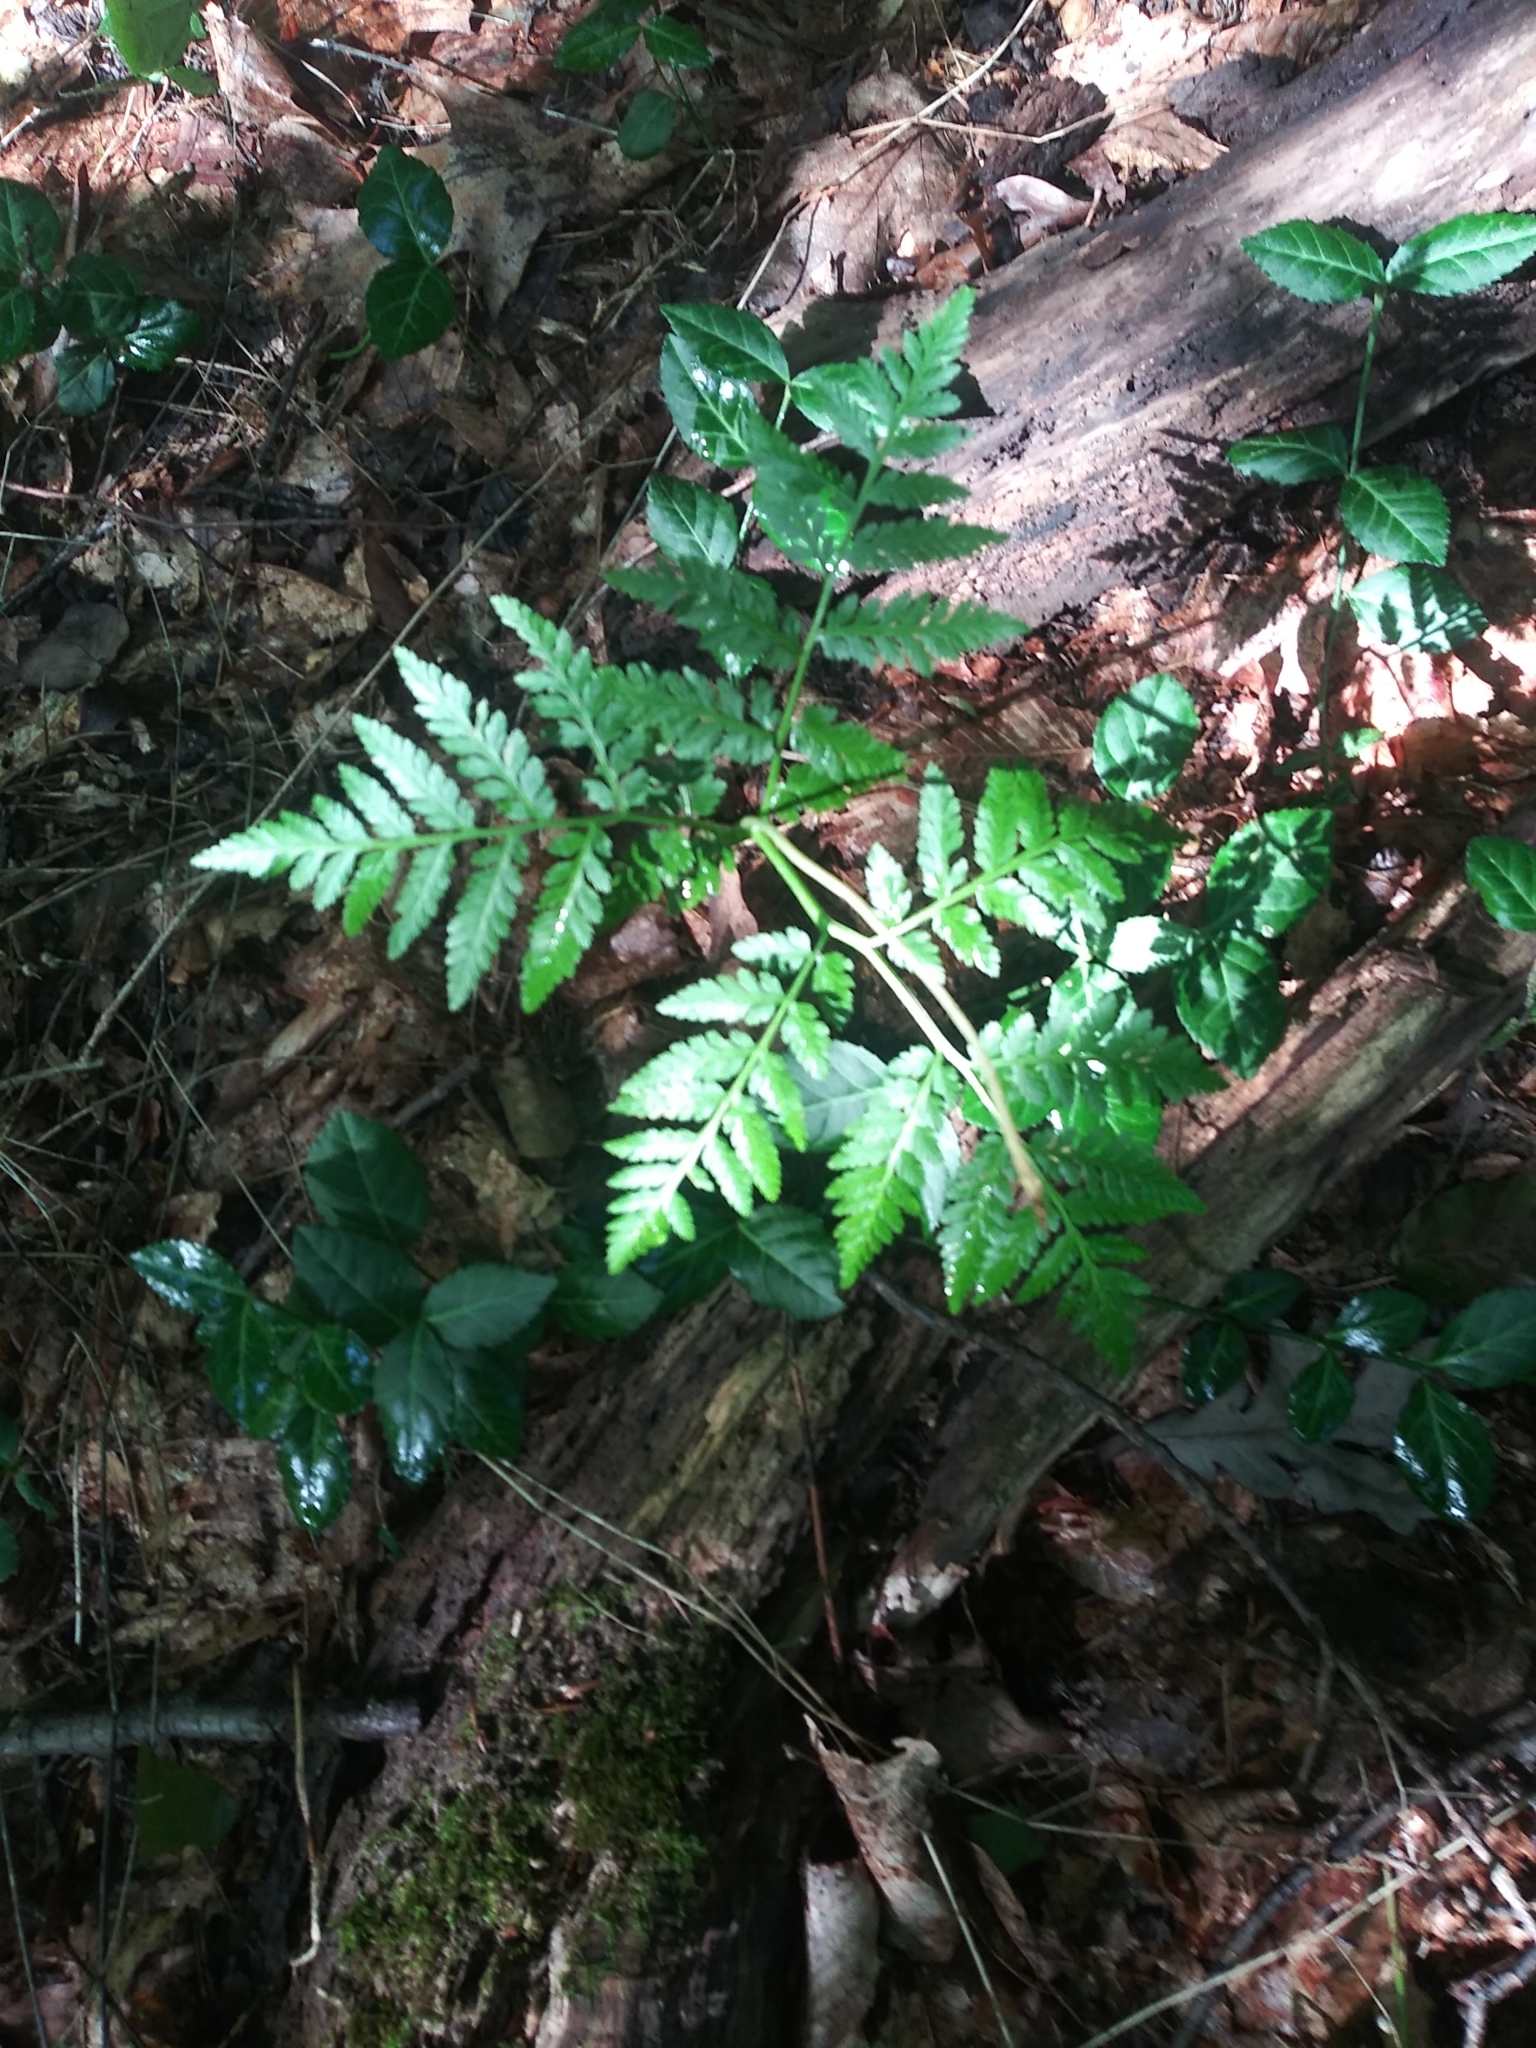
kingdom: Plantae
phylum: Tracheophyta
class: Polypodiopsida
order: Ophioglossales
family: Ophioglossaceae
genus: Botrypus
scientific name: Botrypus virginianus
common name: Common grapefern
